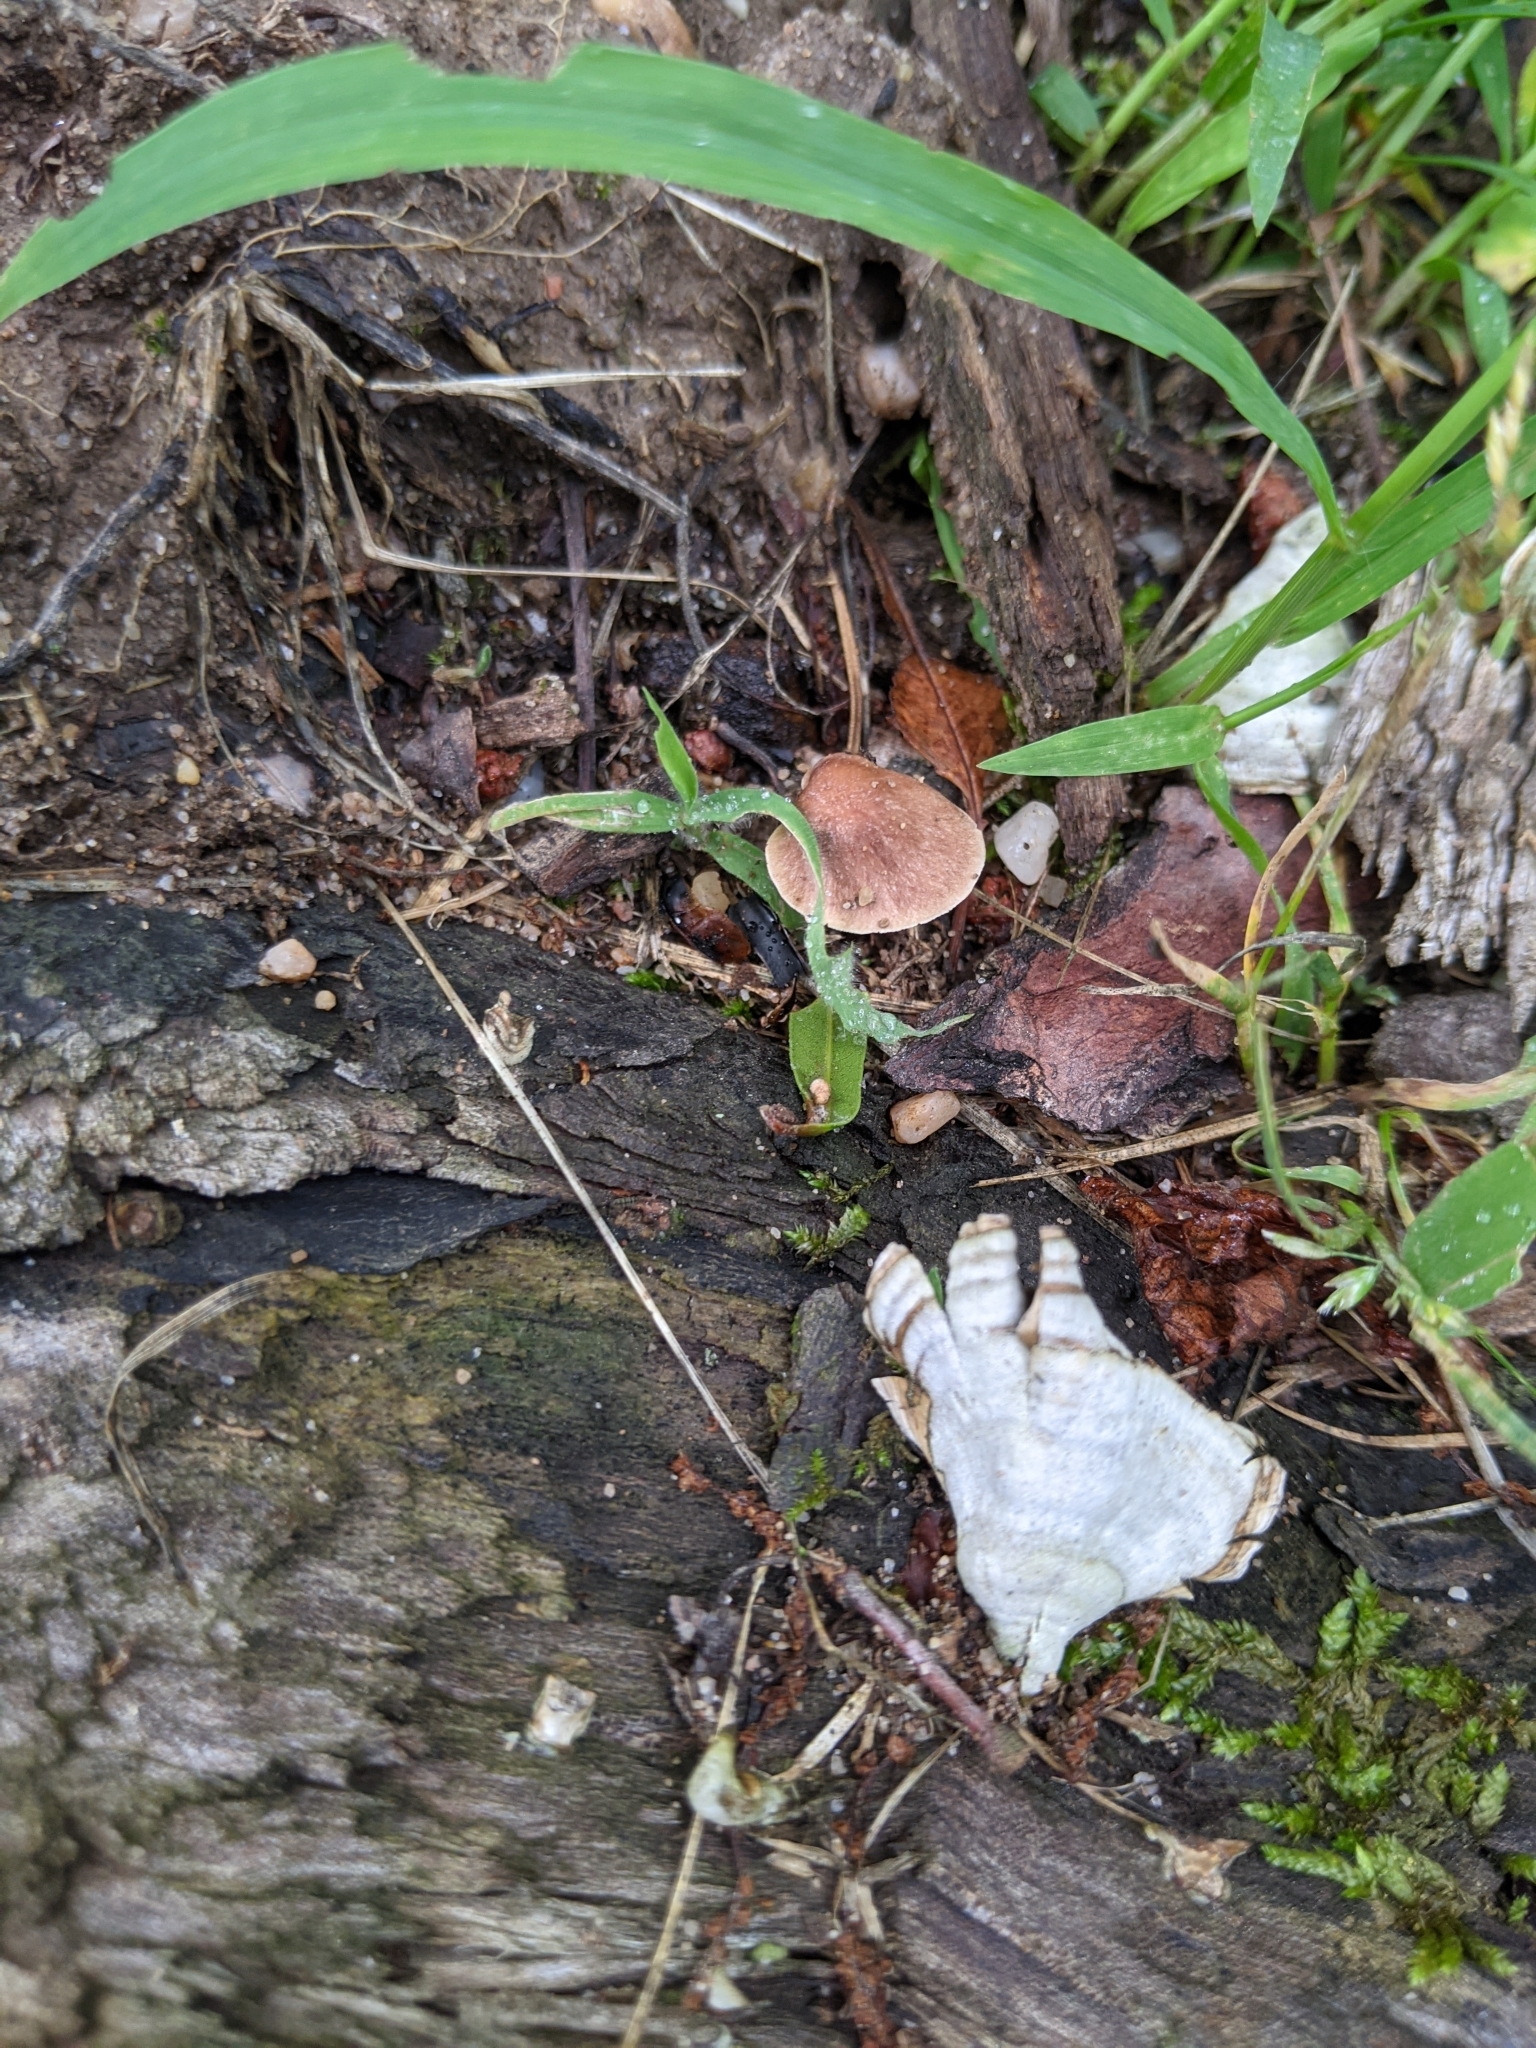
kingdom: Fungi
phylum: Basidiomycota
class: Agaricomycetes
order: Polyporales
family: Polyporaceae
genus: Ganoderma
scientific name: Ganoderma curtisii
